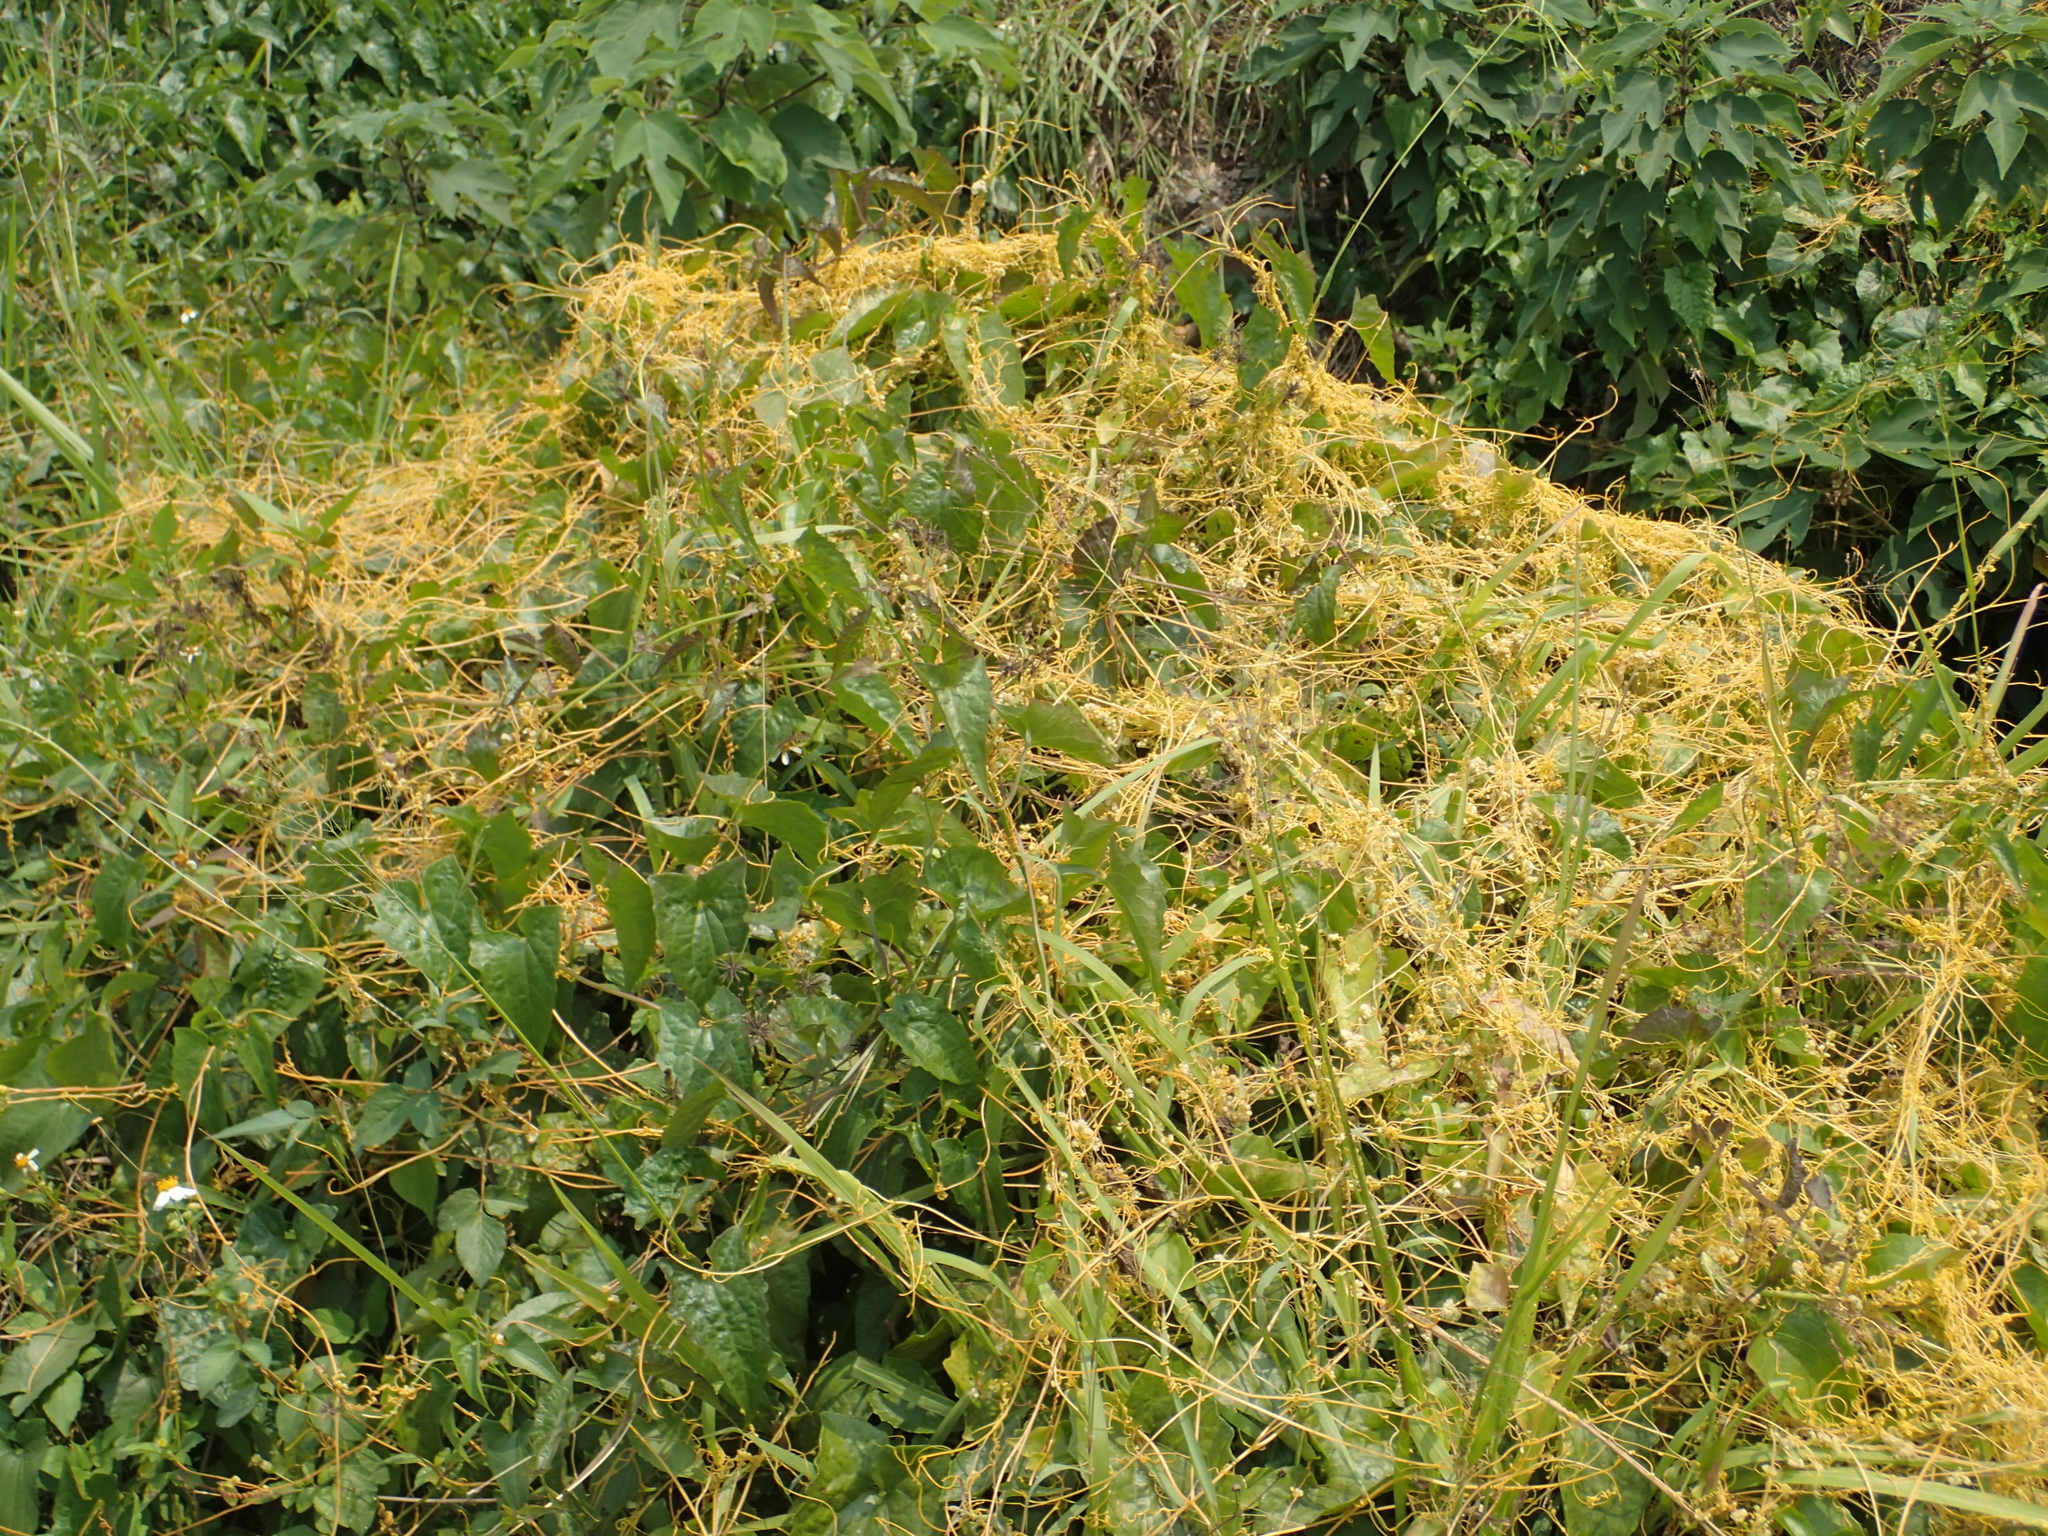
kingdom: Plantae
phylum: Tracheophyta
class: Magnoliopsida
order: Solanales
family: Convolvulaceae
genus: Cuscuta
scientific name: Cuscuta campestris
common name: Yellow dodder
